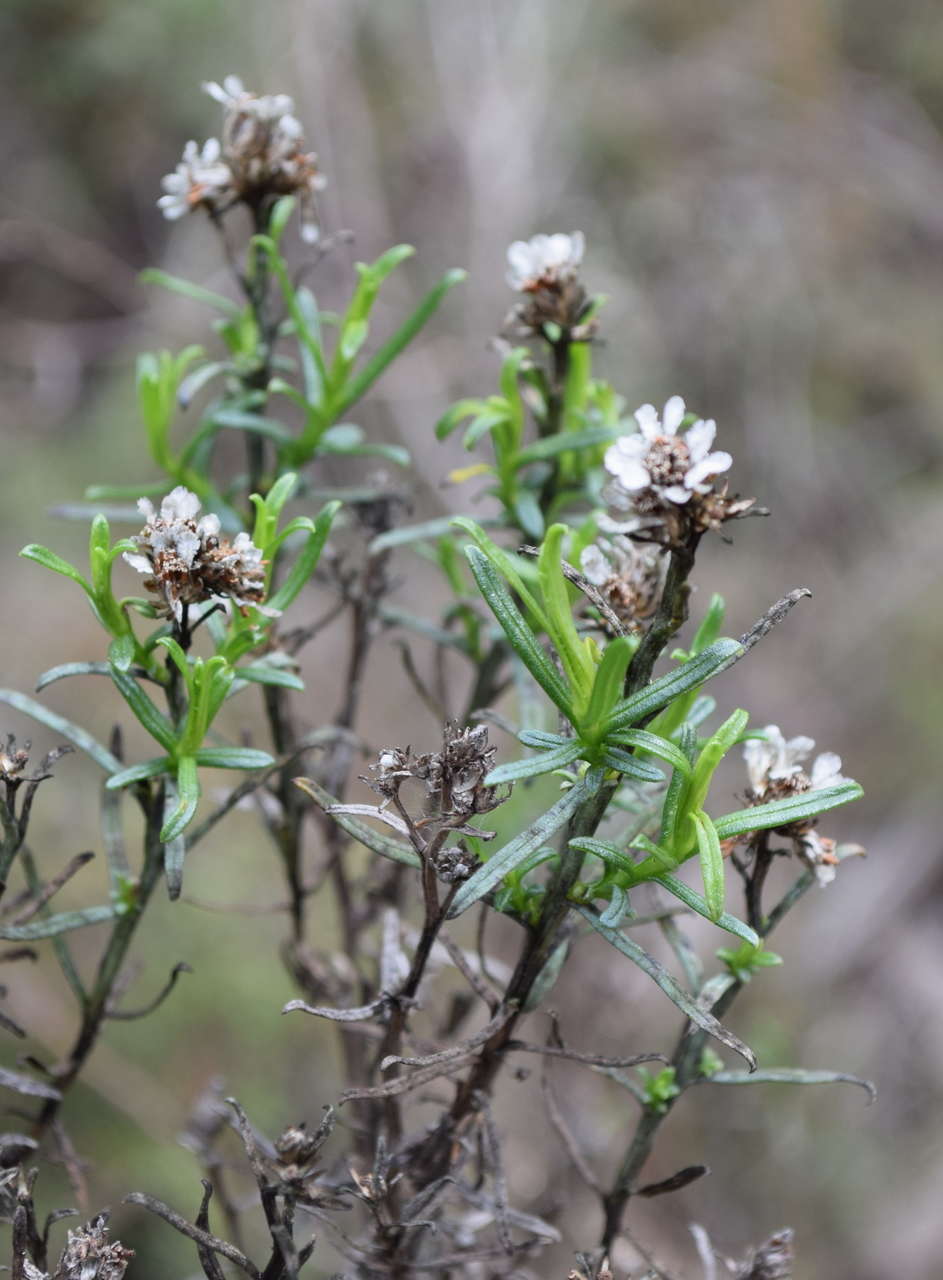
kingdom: Plantae
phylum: Tracheophyta
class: Magnoliopsida
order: Asterales
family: Asteraceae
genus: Ixodia
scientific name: Ixodia achillaeoides
